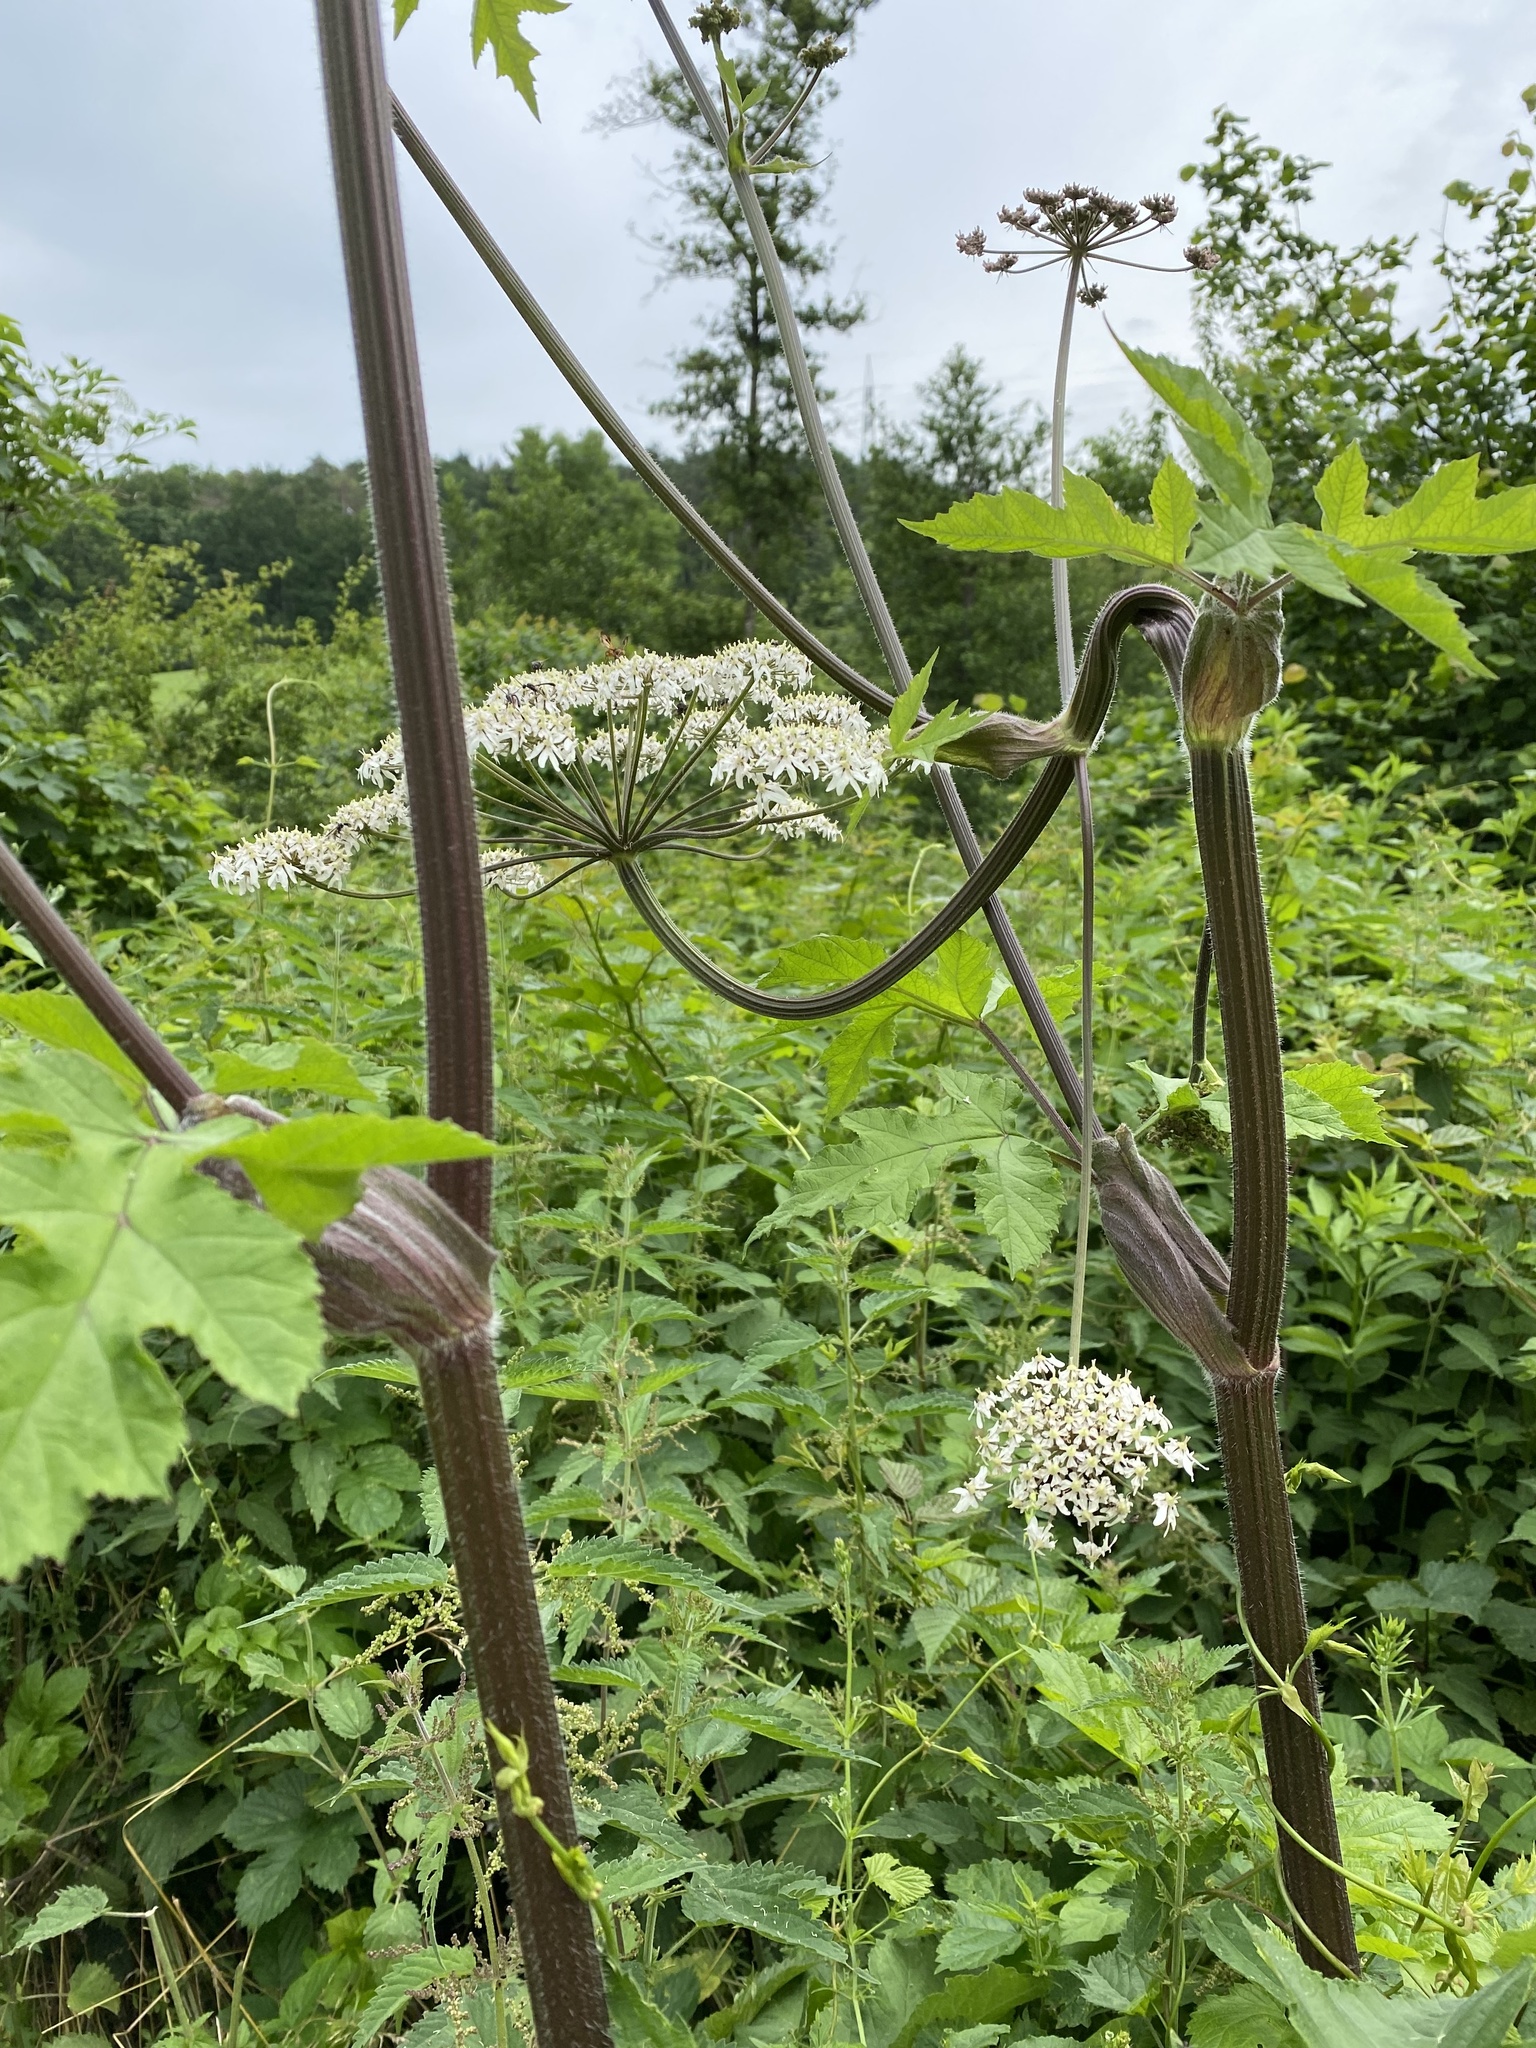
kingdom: Plantae
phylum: Tracheophyta
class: Magnoliopsida
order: Apiales
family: Apiaceae
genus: Heracleum
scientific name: Heracleum sphondylium
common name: Hogweed
